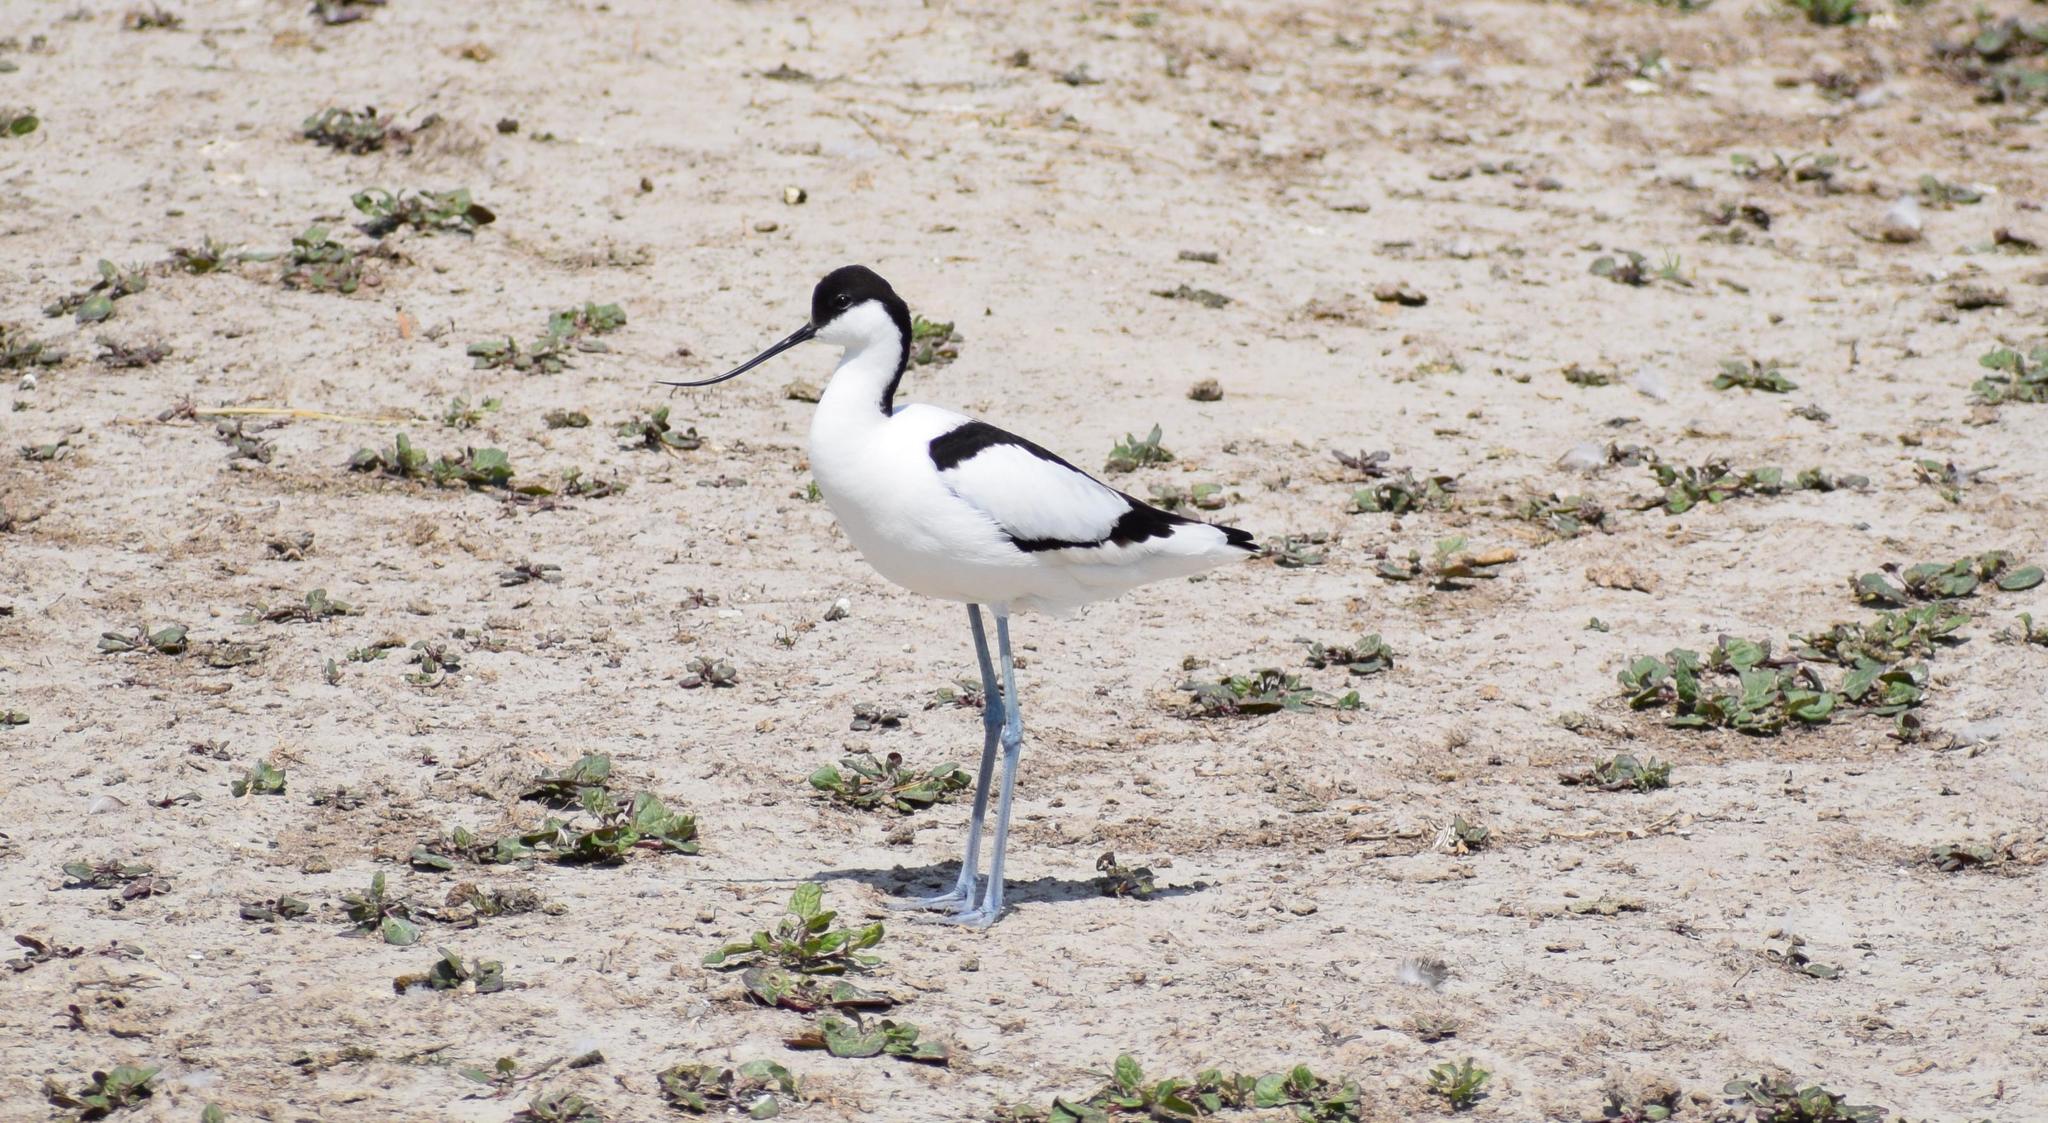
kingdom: Animalia
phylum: Chordata
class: Aves
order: Charadriiformes
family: Recurvirostridae
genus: Recurvirostra
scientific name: Recurvirostra avosetta
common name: Pied avocet
